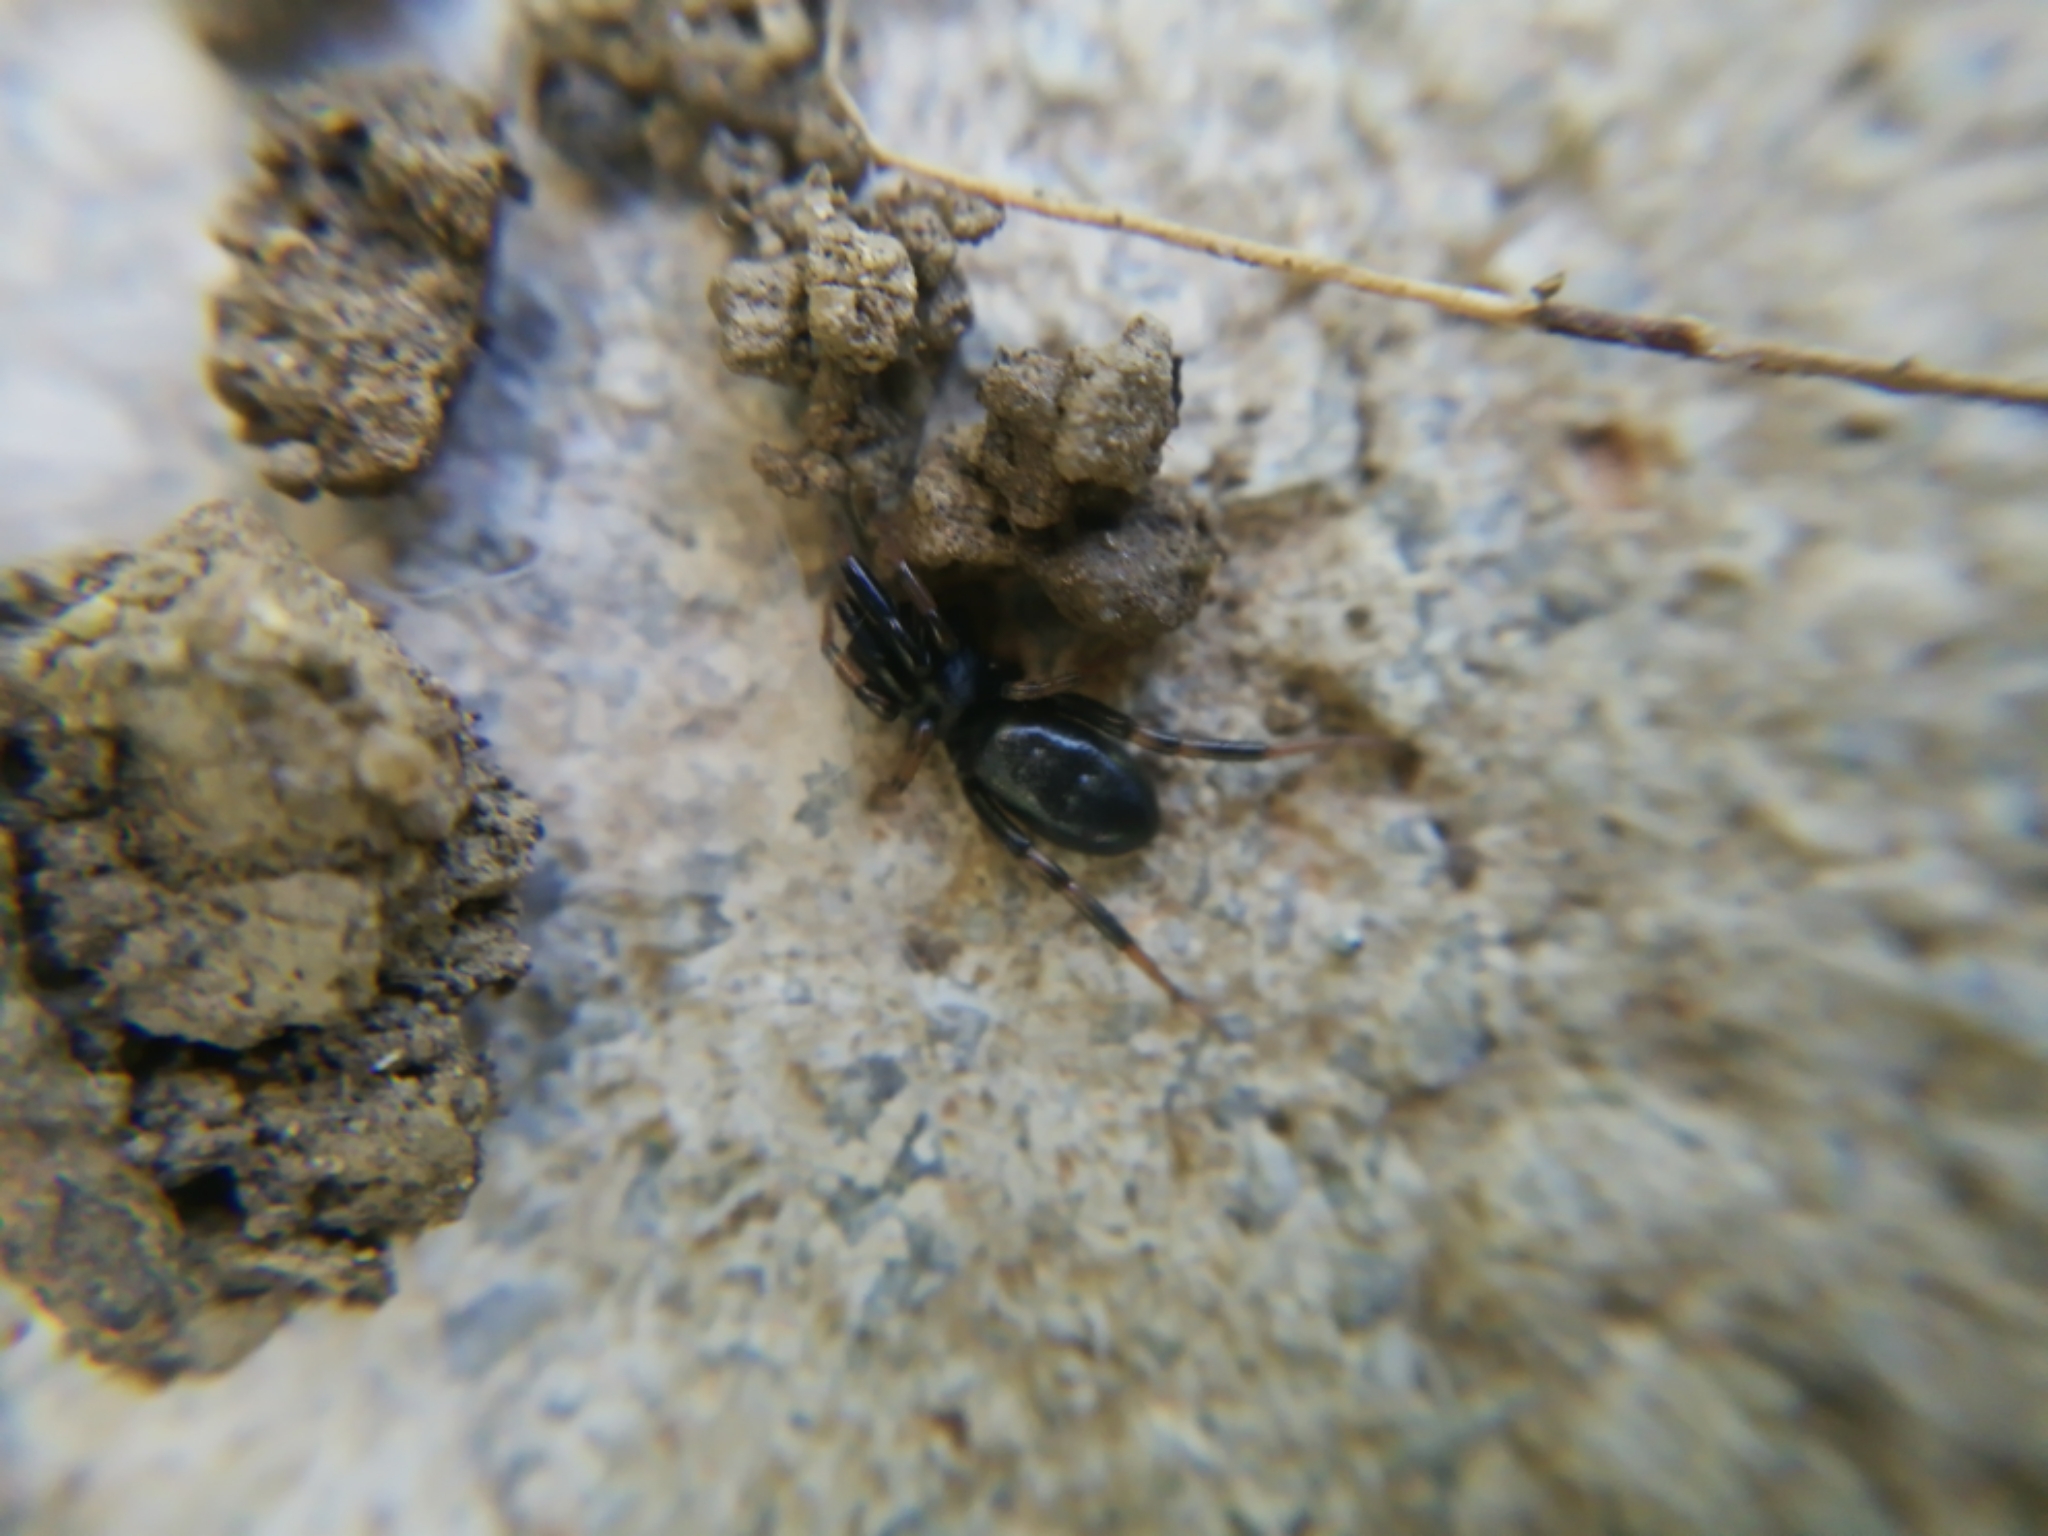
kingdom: Animalia
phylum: Arthropoda
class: Arachnida
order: Araneae
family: Gnaphosidae
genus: Setaphis
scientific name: Setaphis carmeli
